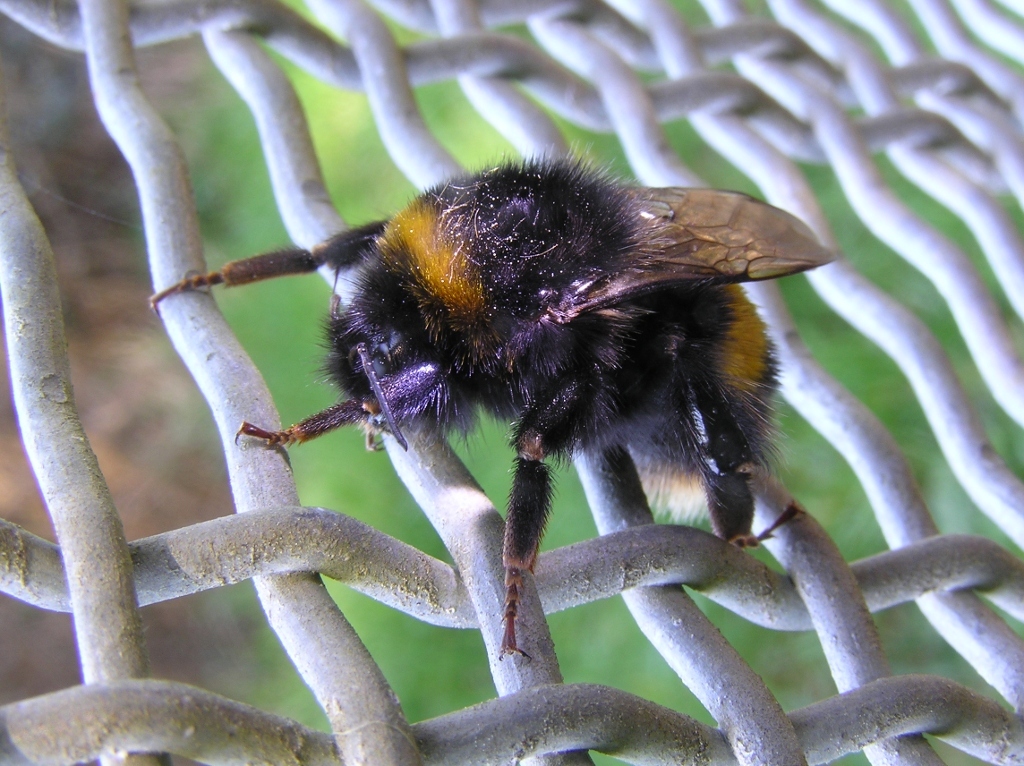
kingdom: Animalia
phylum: Arthropoda
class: Insecta
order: Hymenoptera
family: Apidae
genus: Bombus
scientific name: Bombus terrestris
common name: Buff-tailed bumblebee
